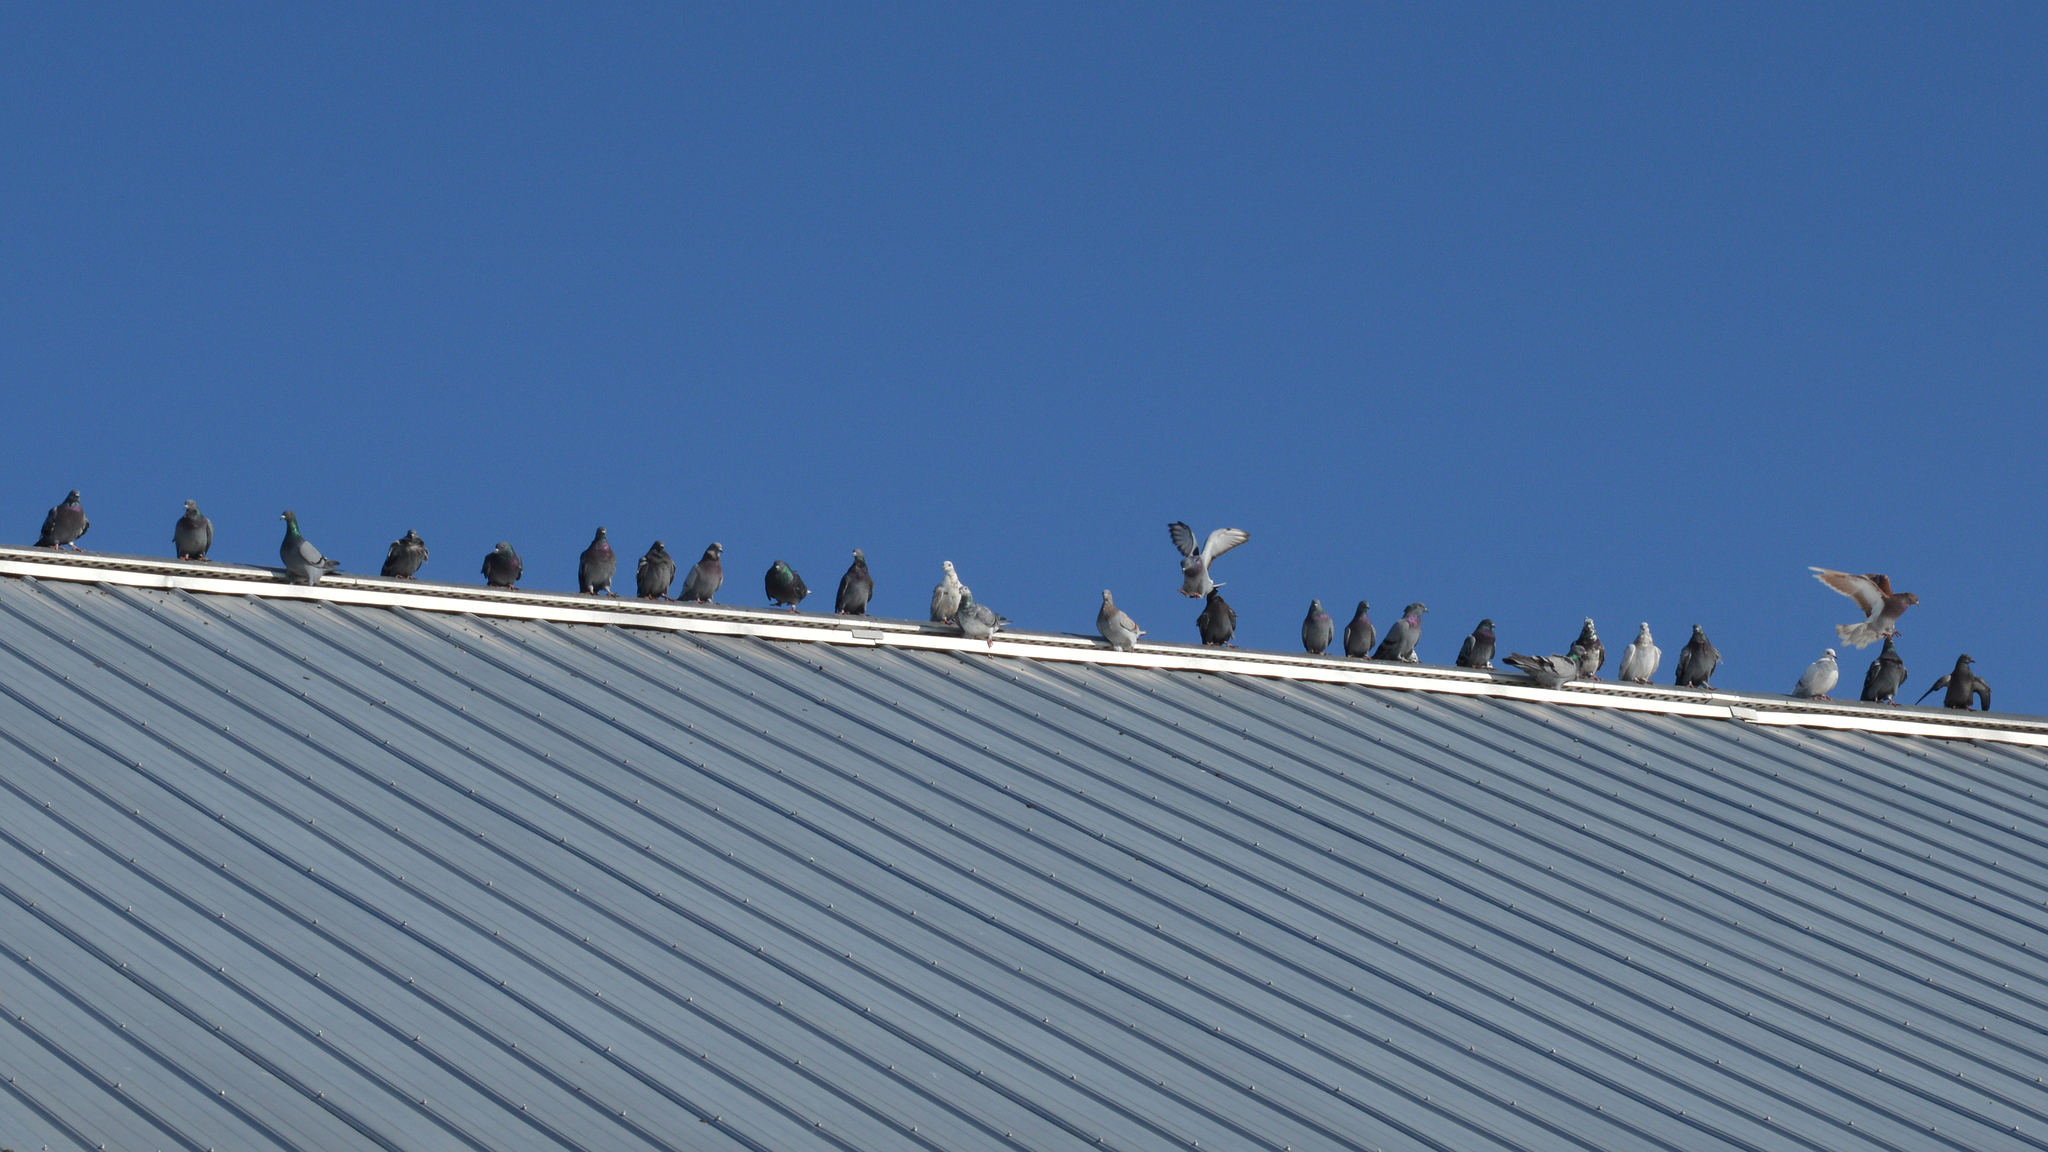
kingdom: Animalia
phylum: Chordata
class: Aves
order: Columbiformes
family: Columbidae
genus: Columba
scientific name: Columba livia
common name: Rock pigeon
